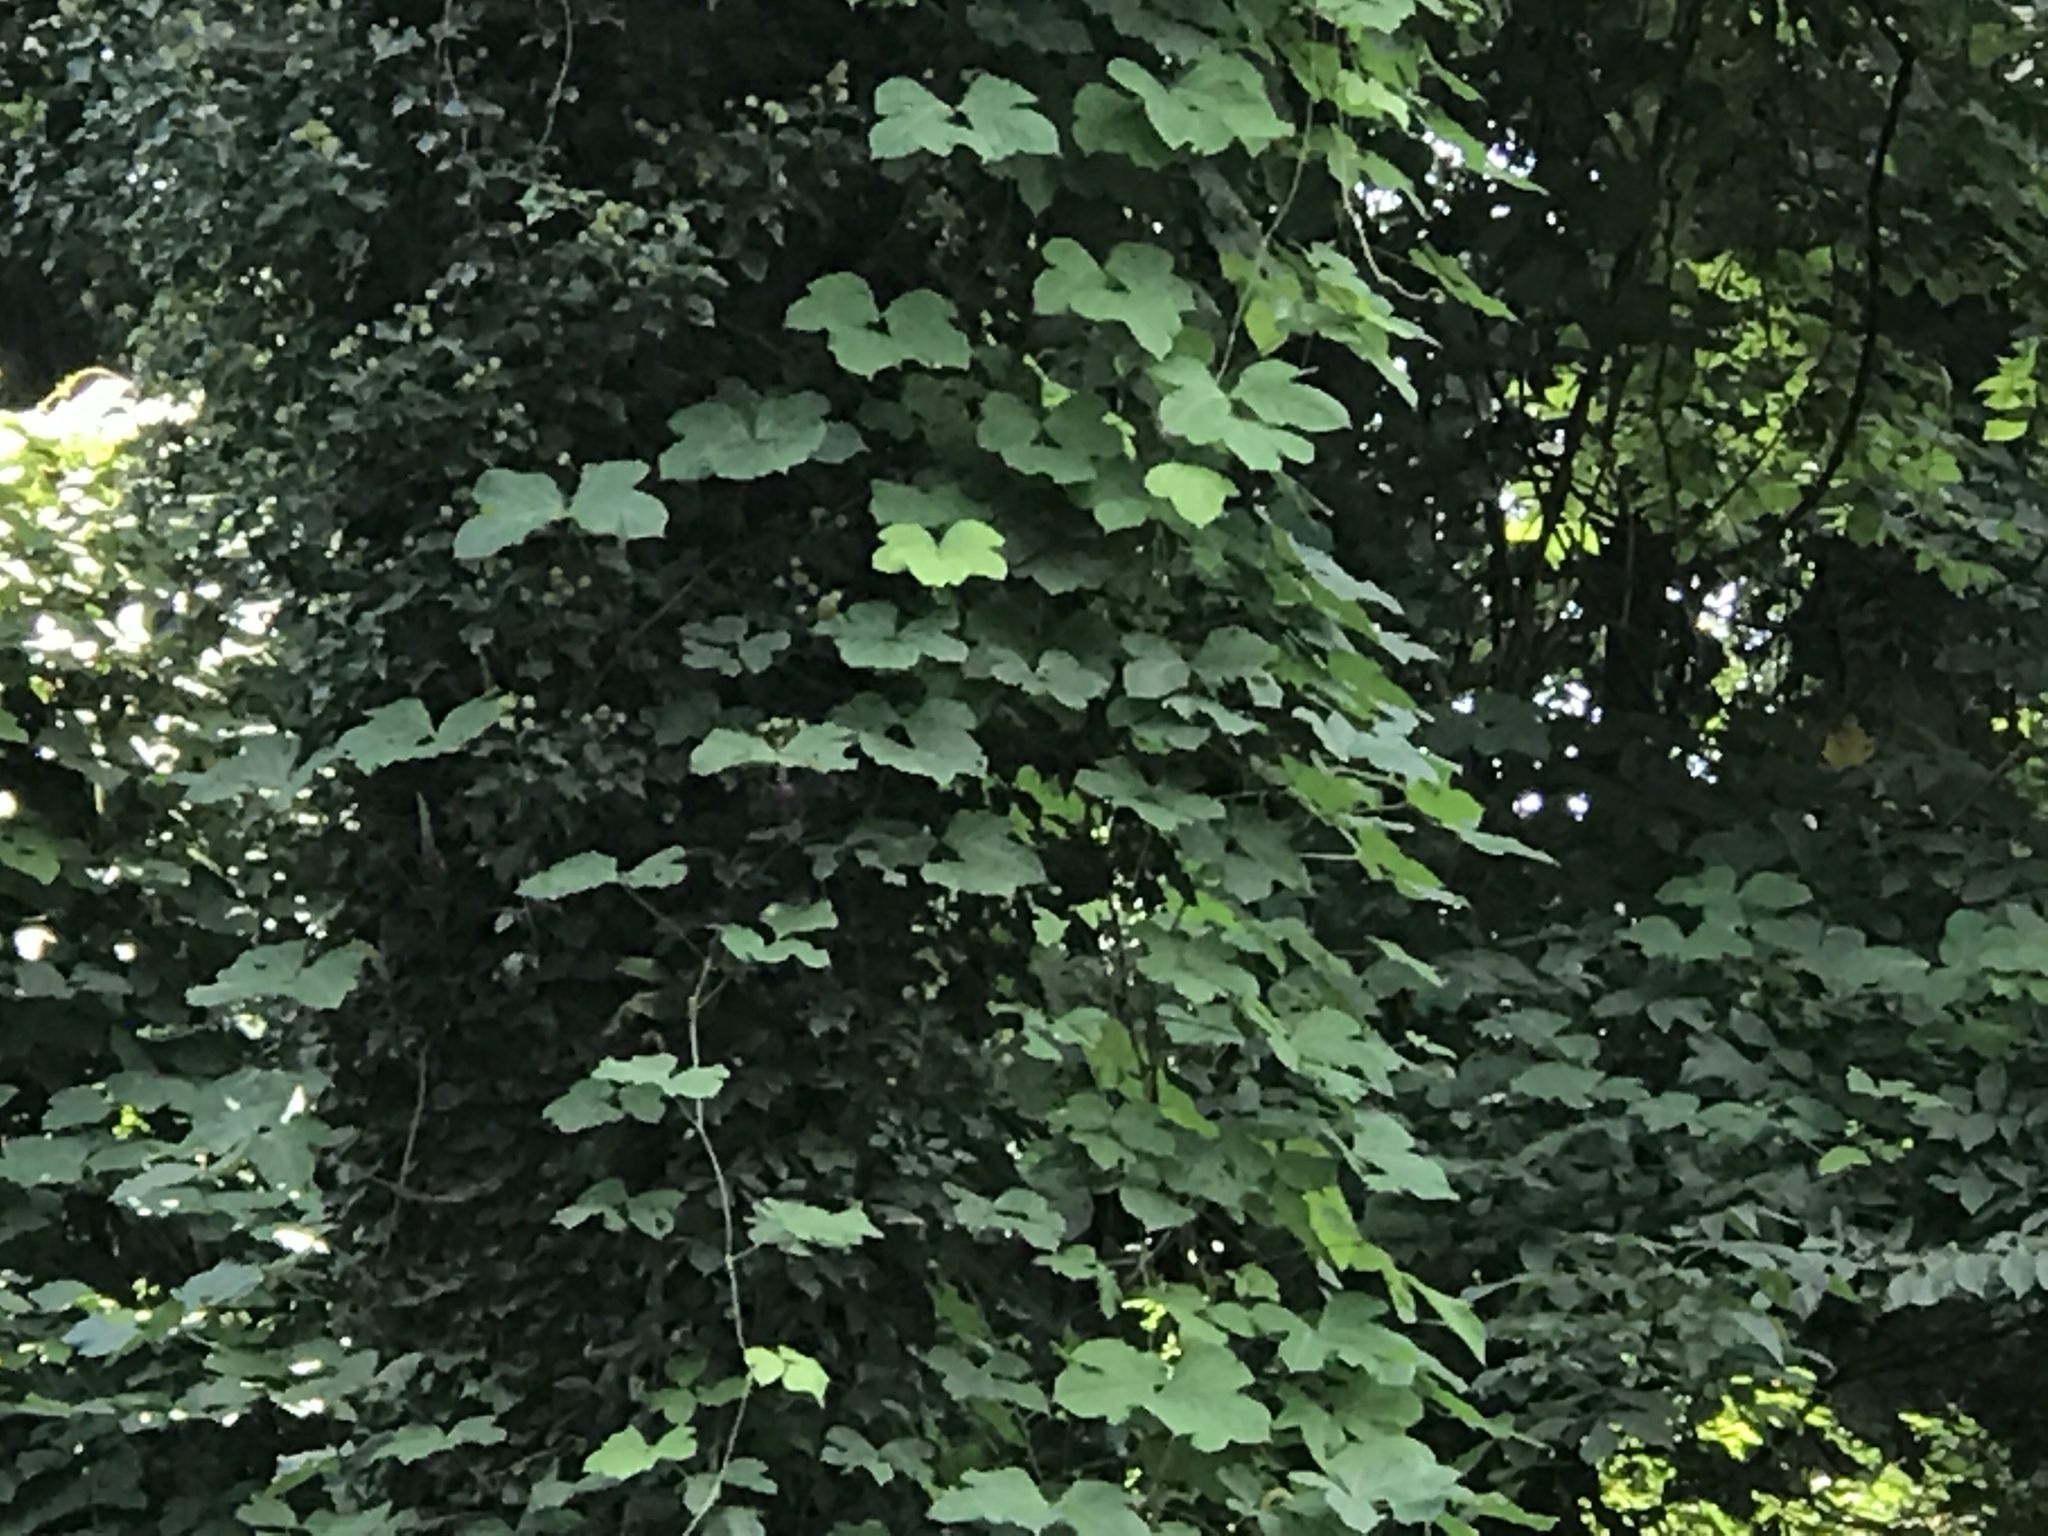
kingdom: Plantae
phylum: Tracheophyta
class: Magnoliopsida
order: Fabales
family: Fabaceae
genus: Pueraria
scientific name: Pueraria montana
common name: Kudzu
